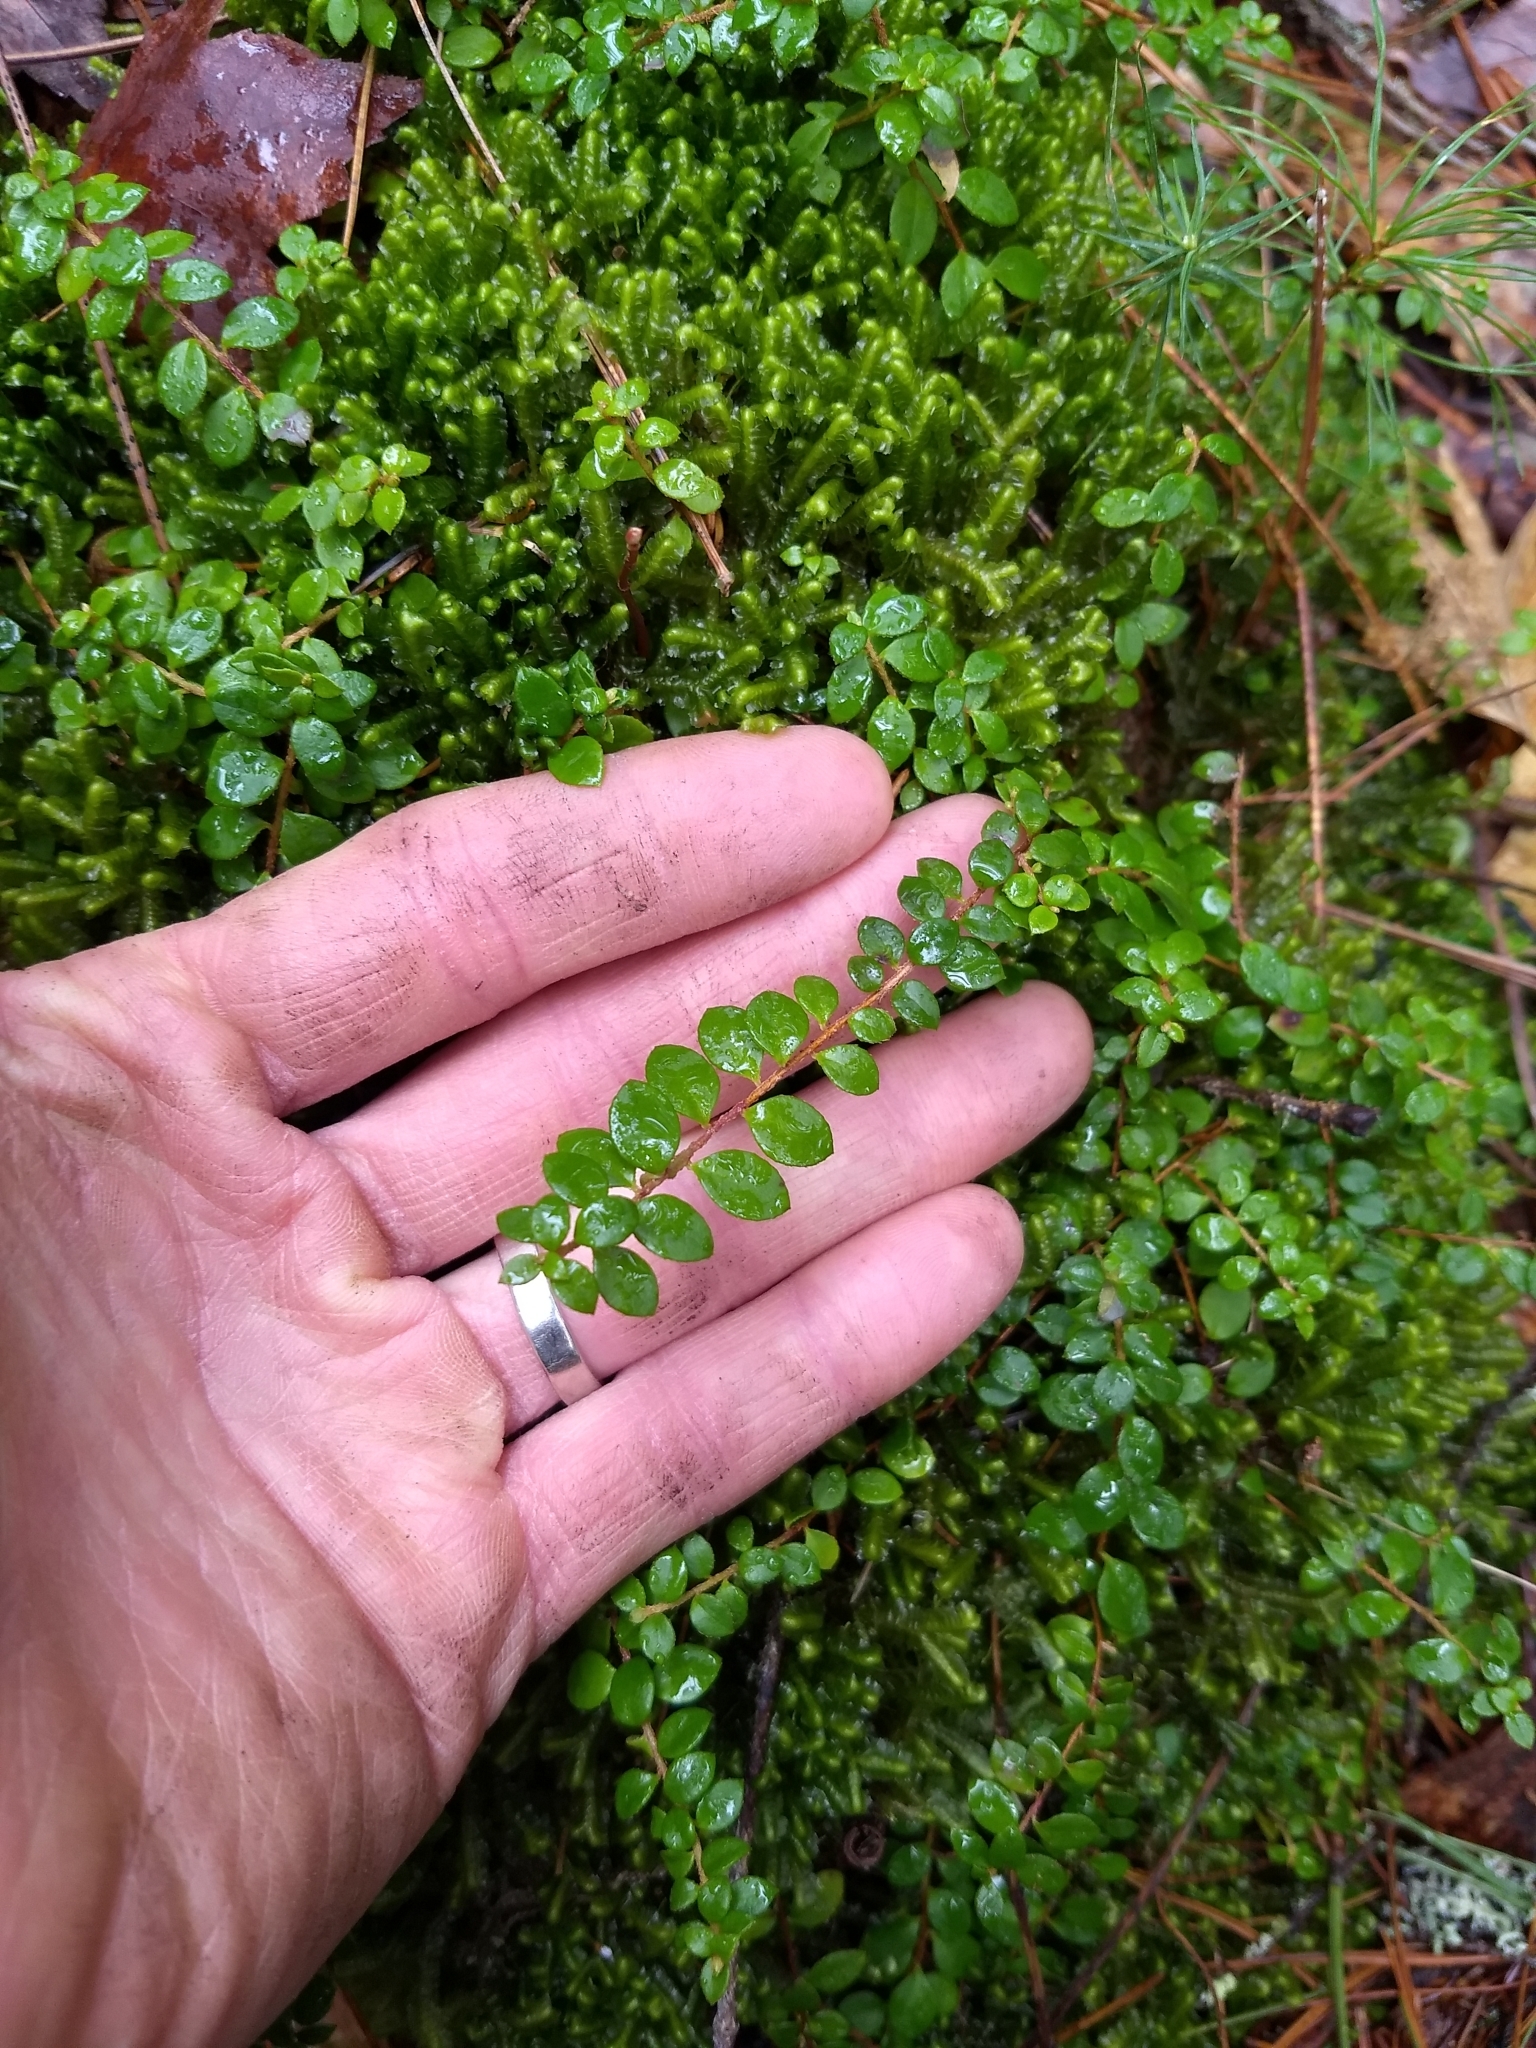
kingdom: Plantae
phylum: Tracheophyta
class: Magnoliopsida
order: Ericales
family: Ericaceae
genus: Gaultheria
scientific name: Gaultheria hispidula
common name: Cancer wintergreen
